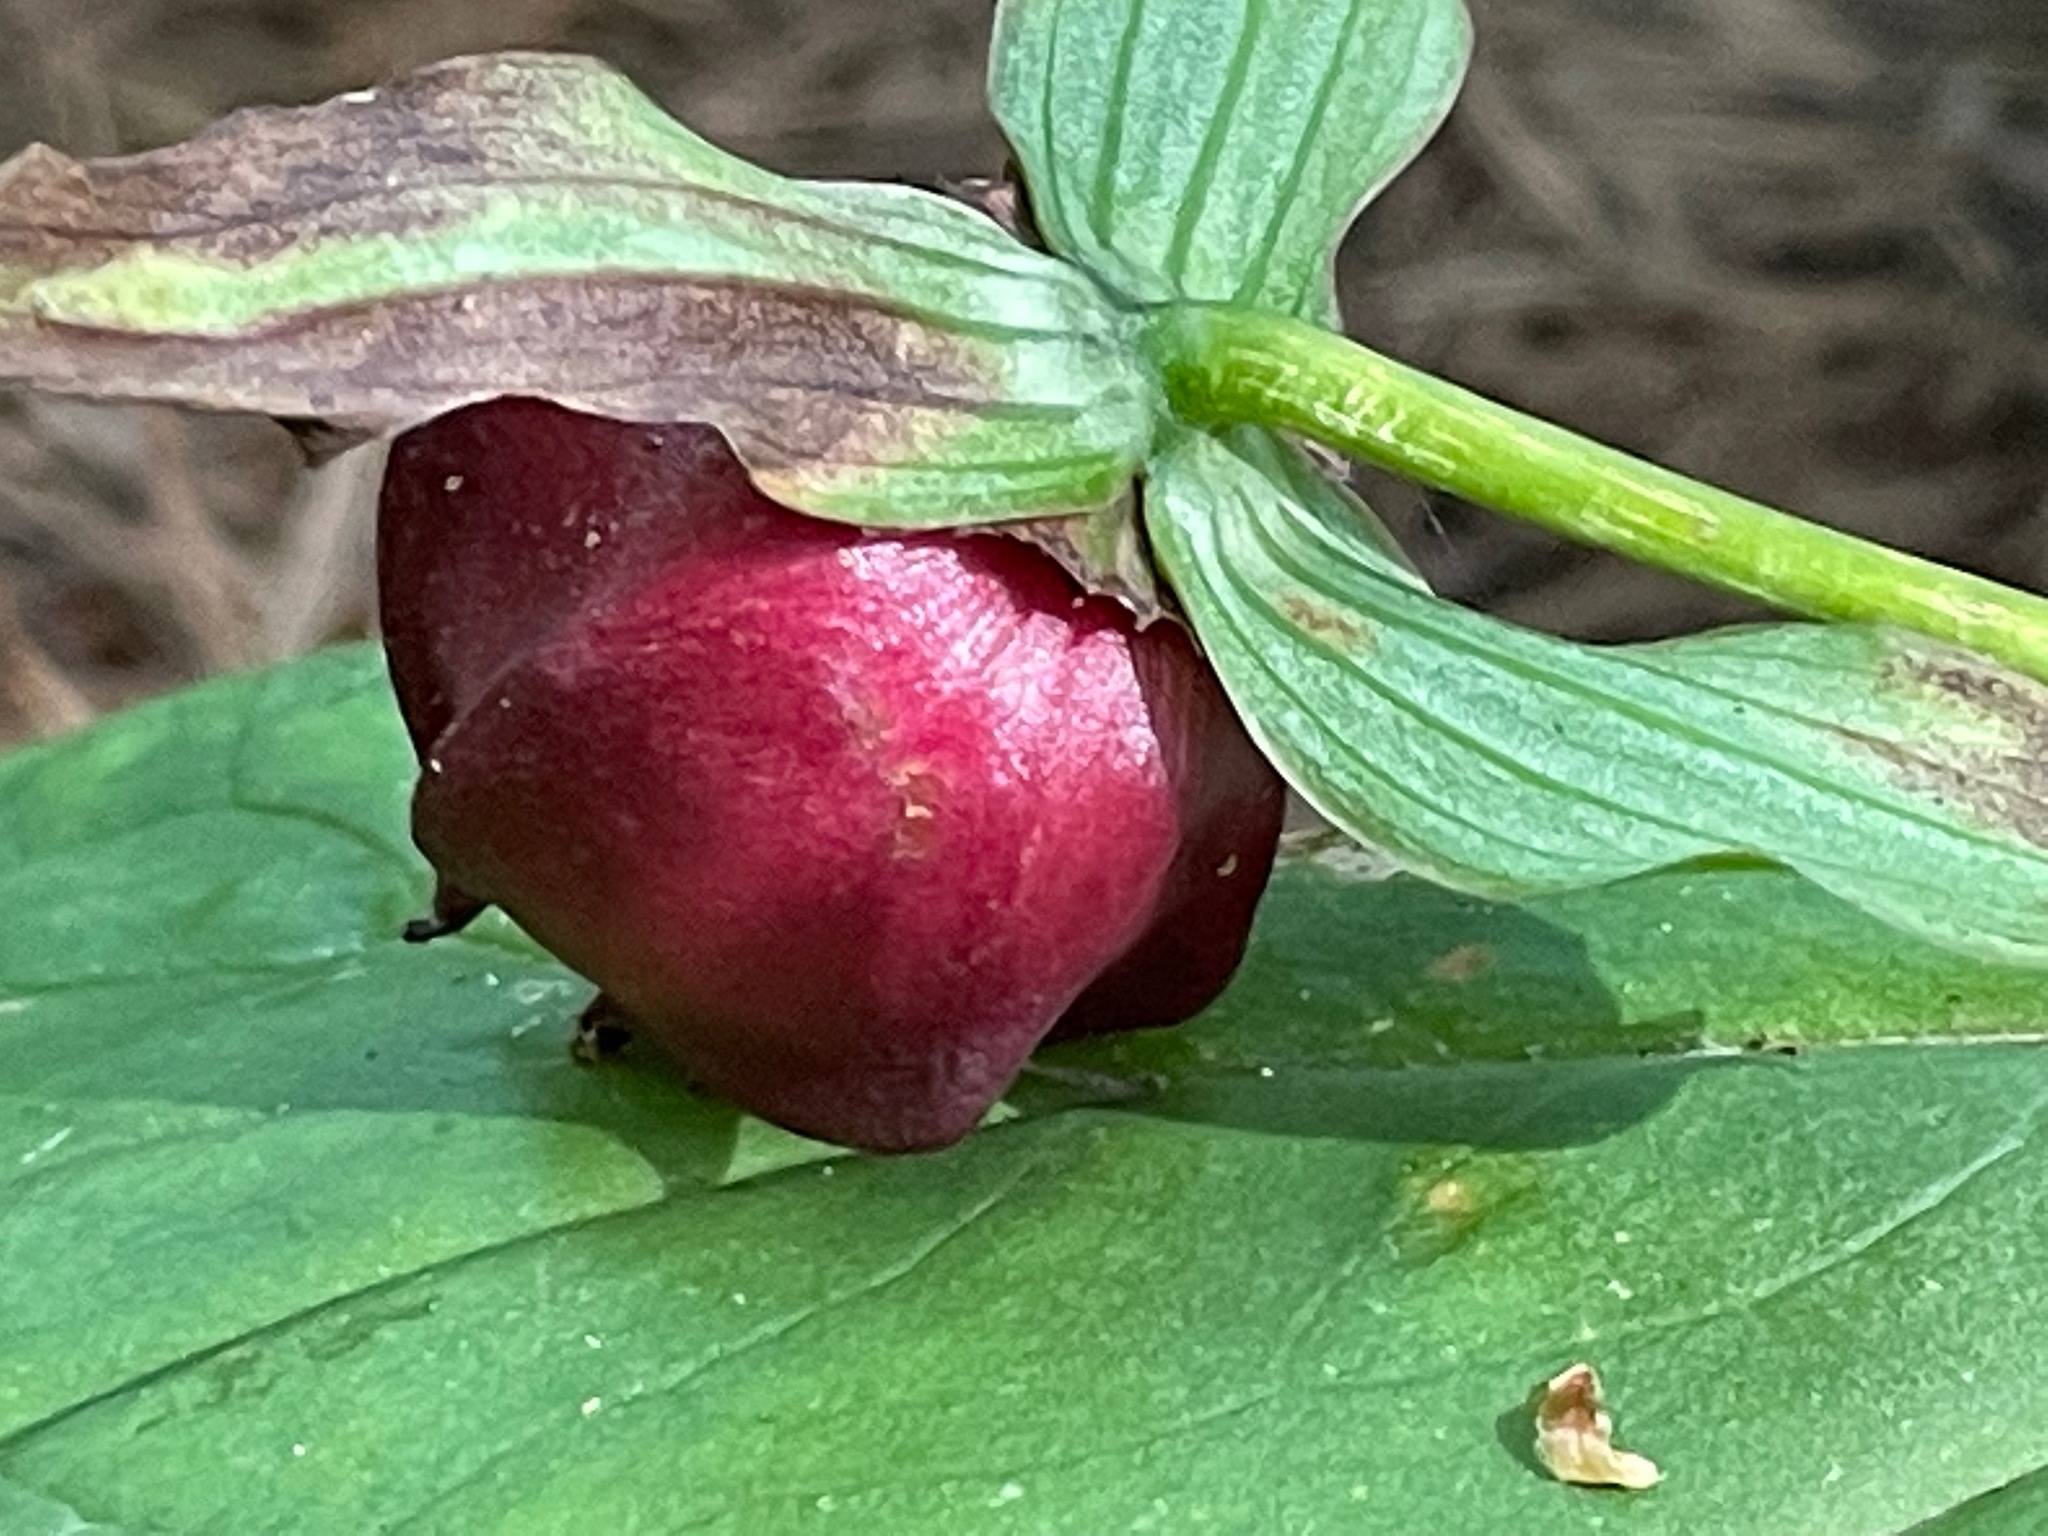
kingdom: Plantae
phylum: Tracheophyta
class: Liliopsida
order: Liliales
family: Melanthiaceae
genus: Trillium
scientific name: Trillium erectum
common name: Purple trillium
